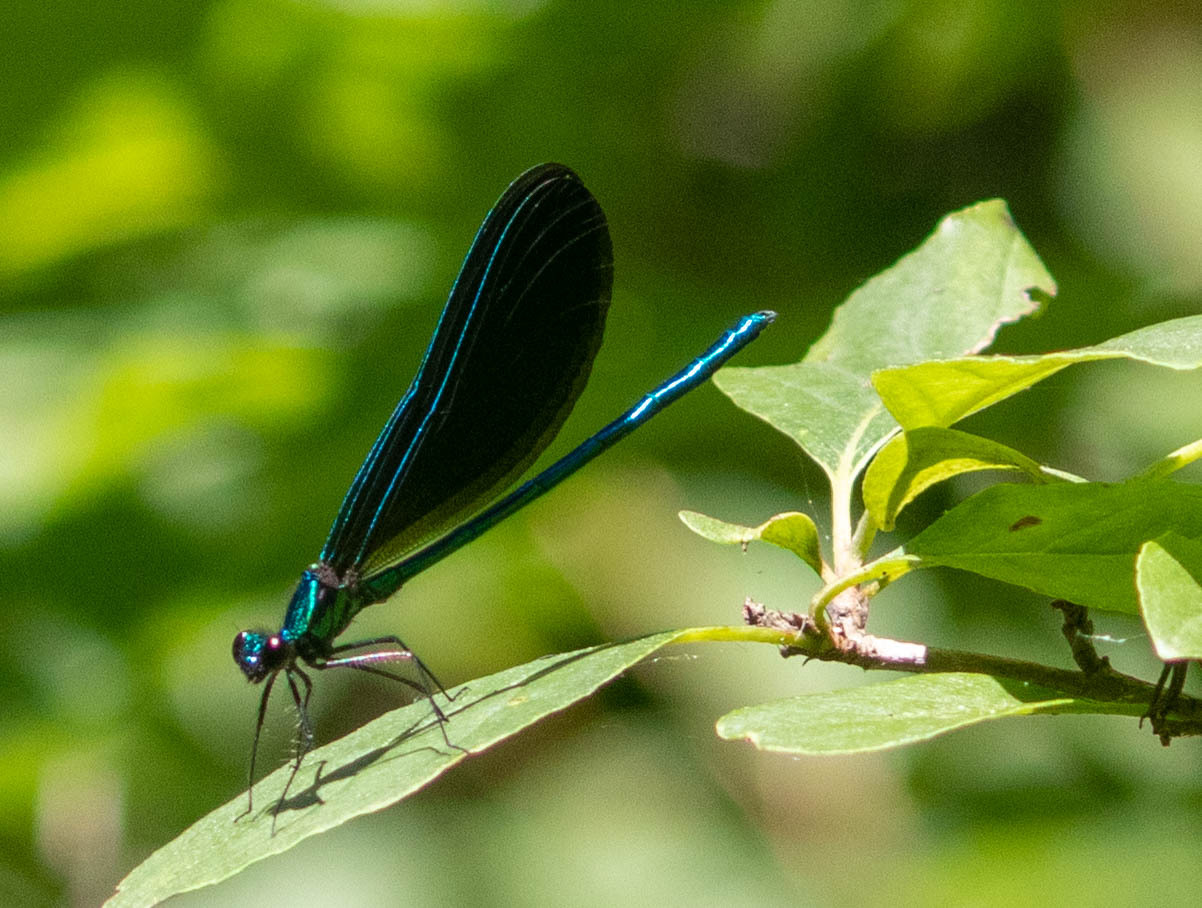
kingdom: Animalia
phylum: Arthropoda
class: Insecta
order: Odonata
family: Calopterygidae
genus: Calopteryx
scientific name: Calopteryx maculata
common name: Ebony jewelwing
